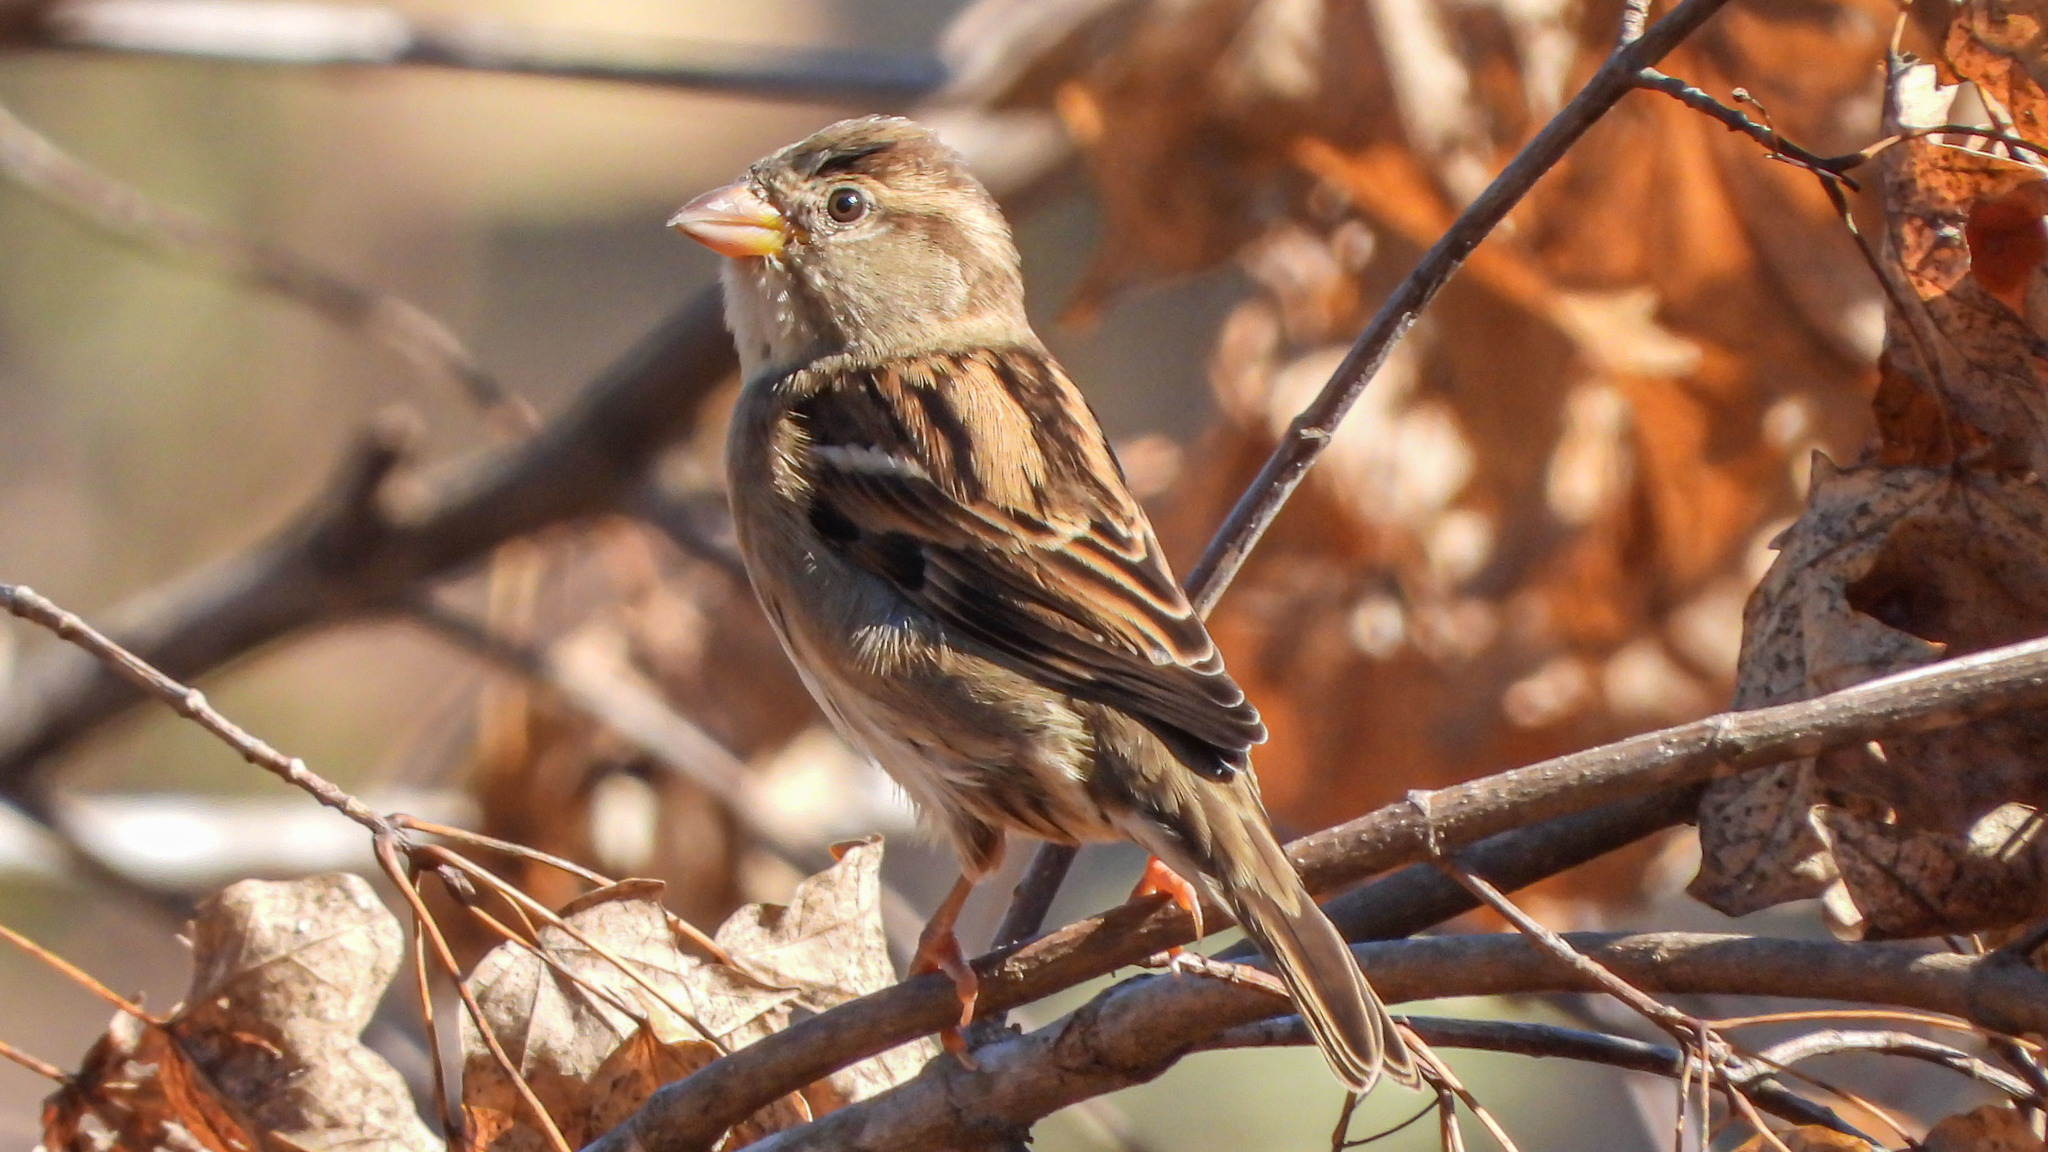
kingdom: Animalia
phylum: Chordata
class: Aves
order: Passeriformes
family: Passeridae
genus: Passer
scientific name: Passer domesticus
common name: House sparrow
